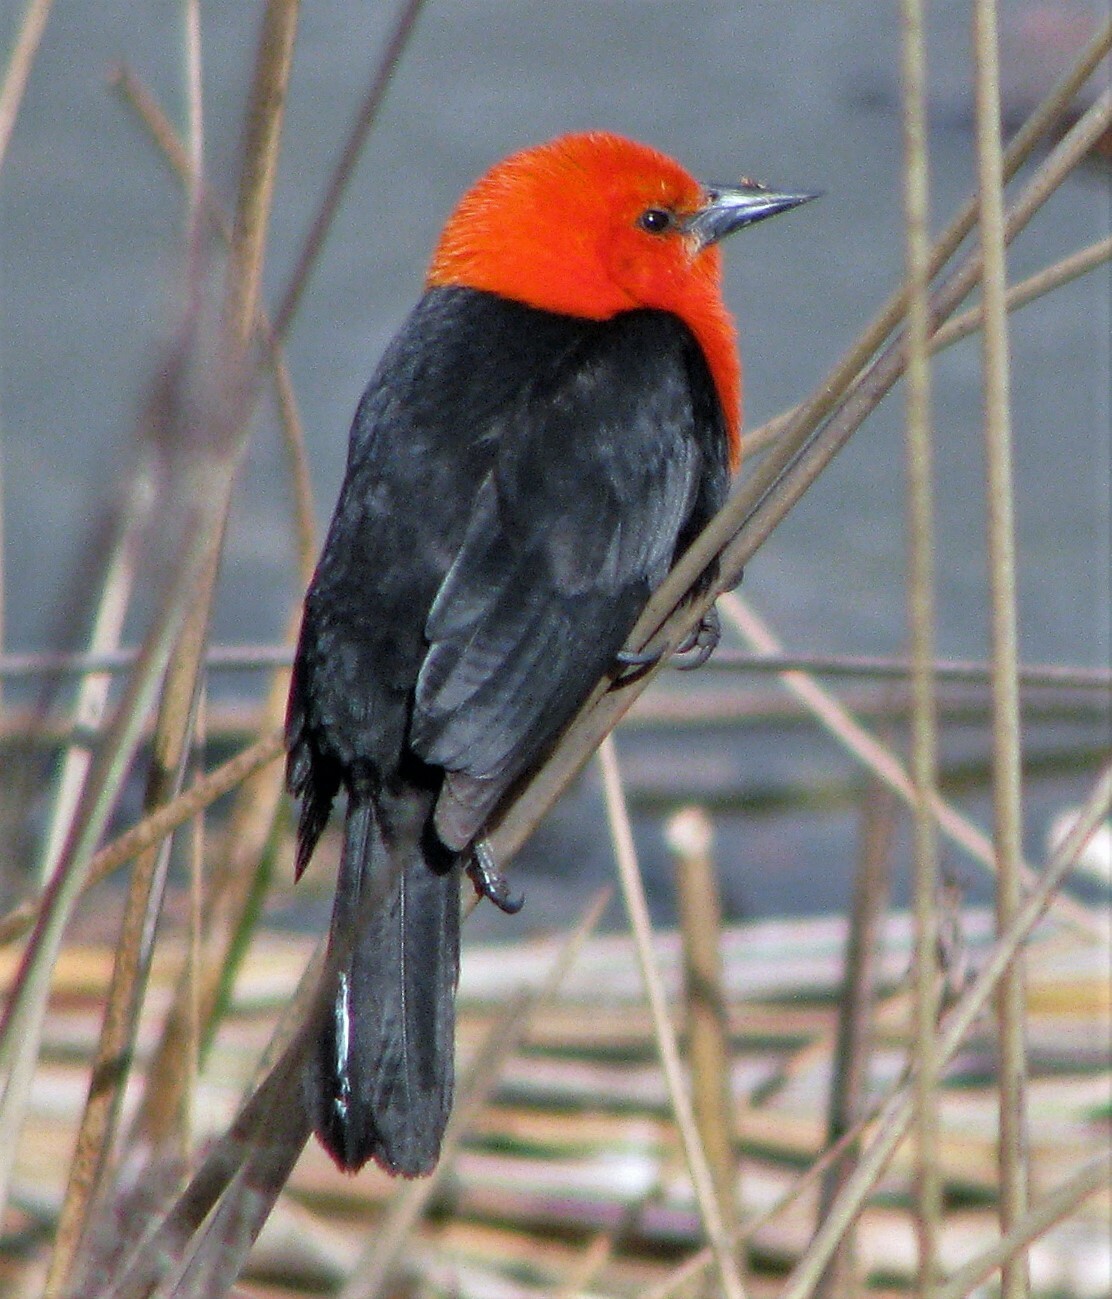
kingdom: Animalia
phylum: Chordata
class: Aves
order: Passeriformes
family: Icteridae
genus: Amblyramphus
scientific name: Amblyramphus holosericeus
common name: Scarlet-headed blackbird
